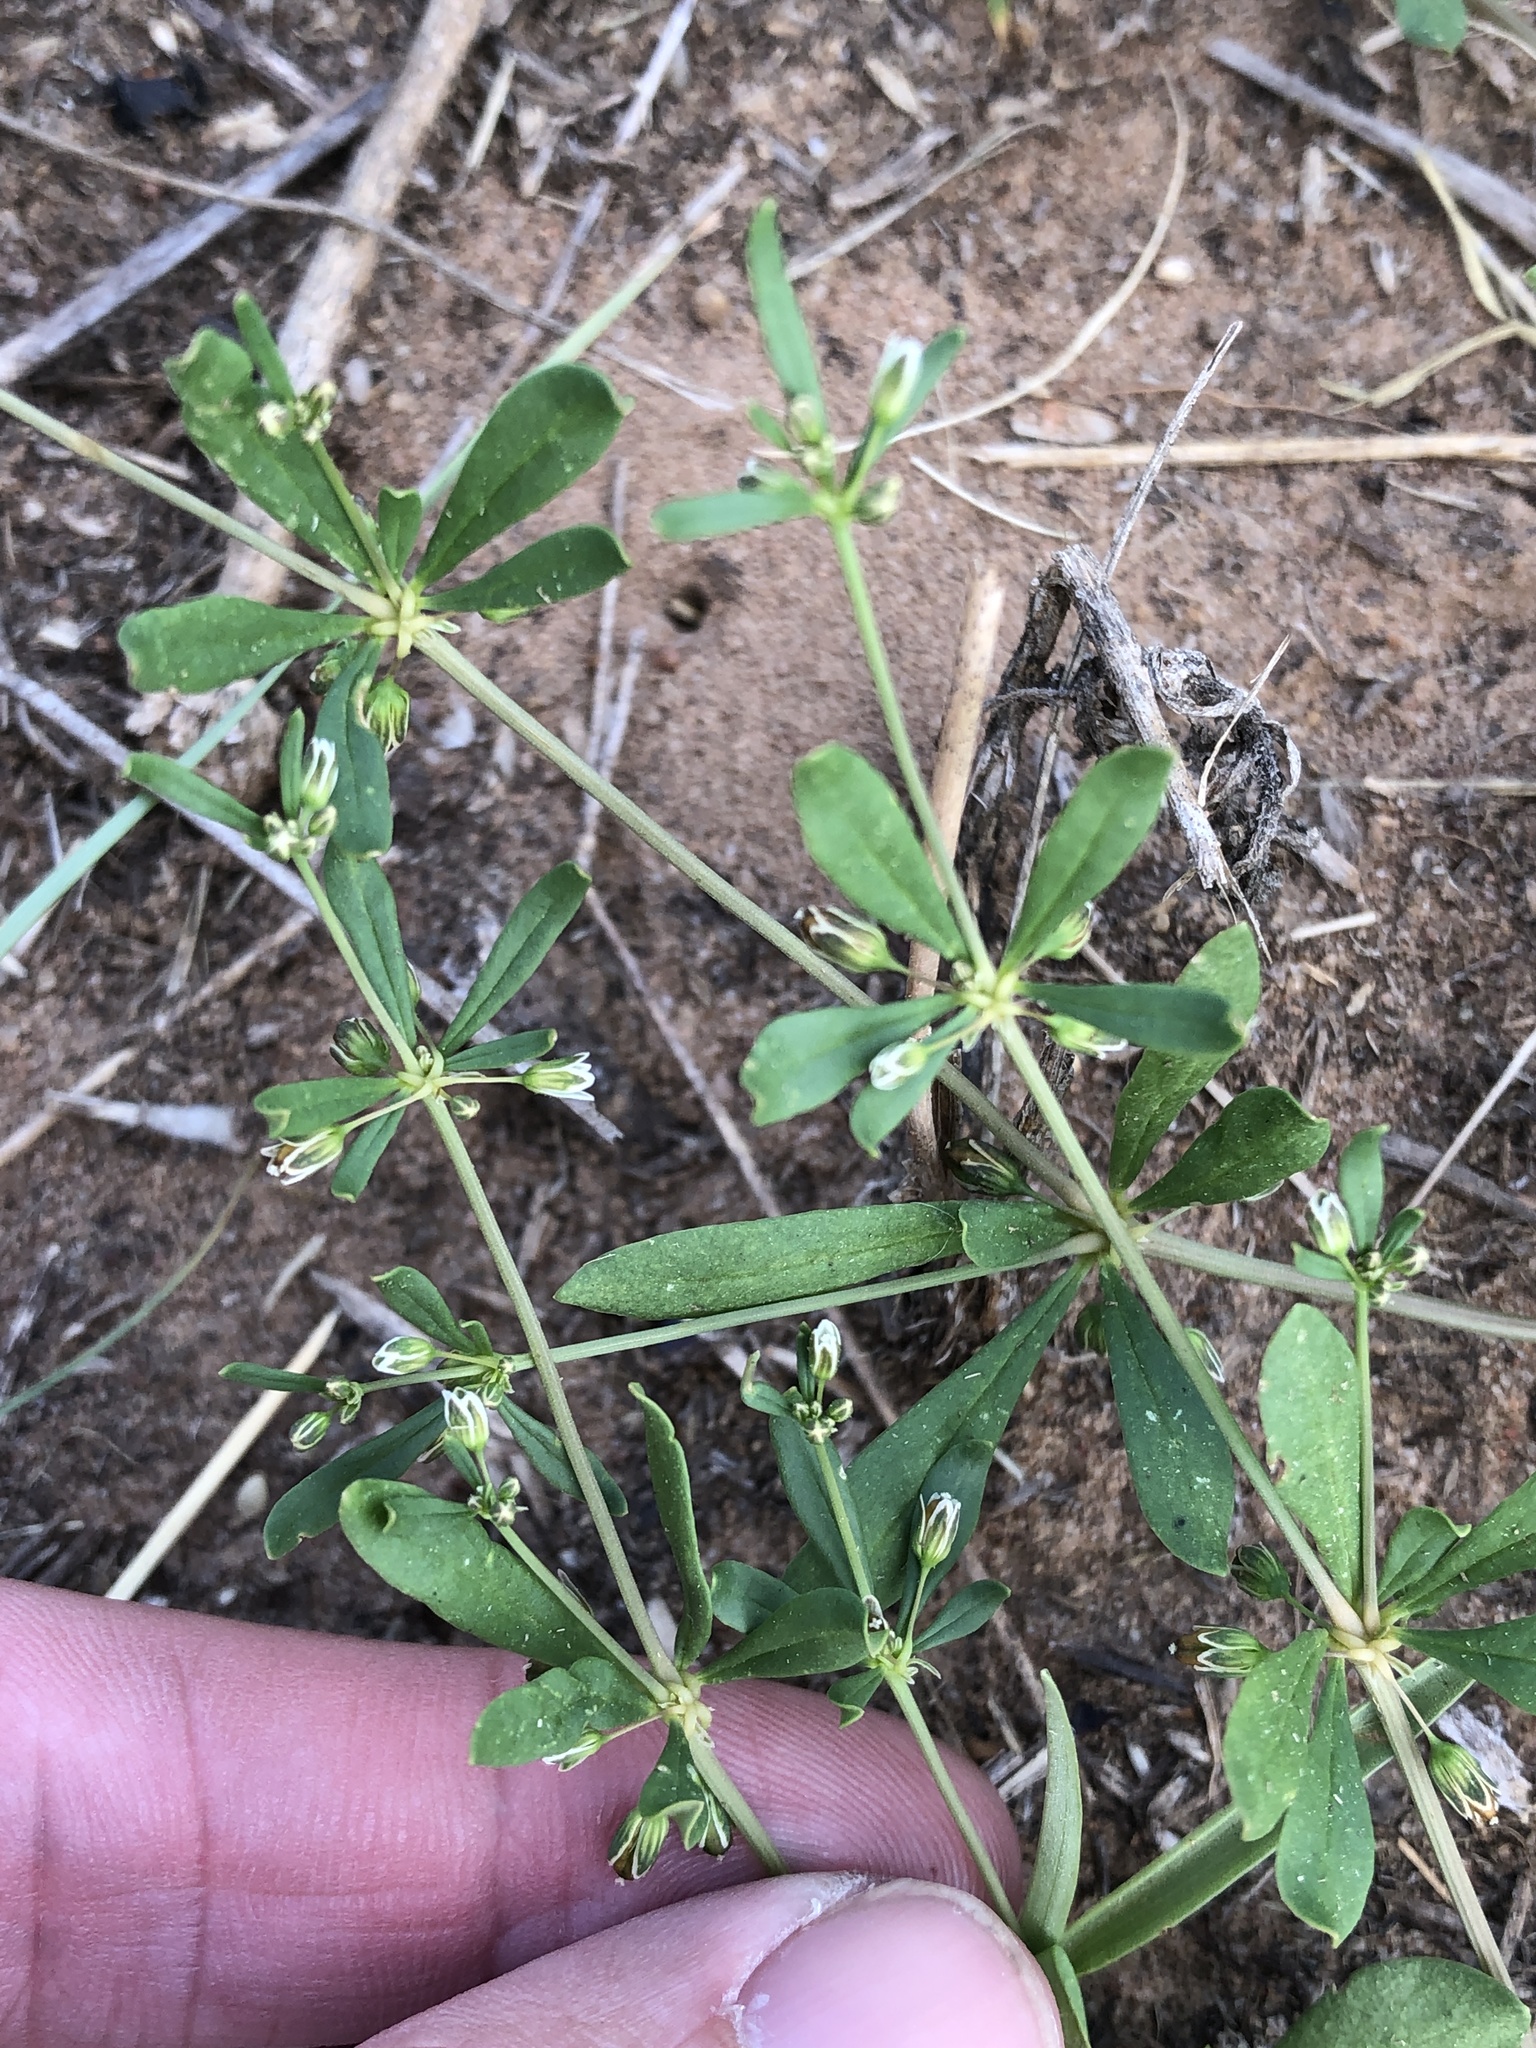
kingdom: Plantae
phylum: Tracheophyta
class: Magnoliopsida
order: Caryophyllales
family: Molluginaceae
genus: Mollugo
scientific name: Mollugo verticillata
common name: Green carpetweed
